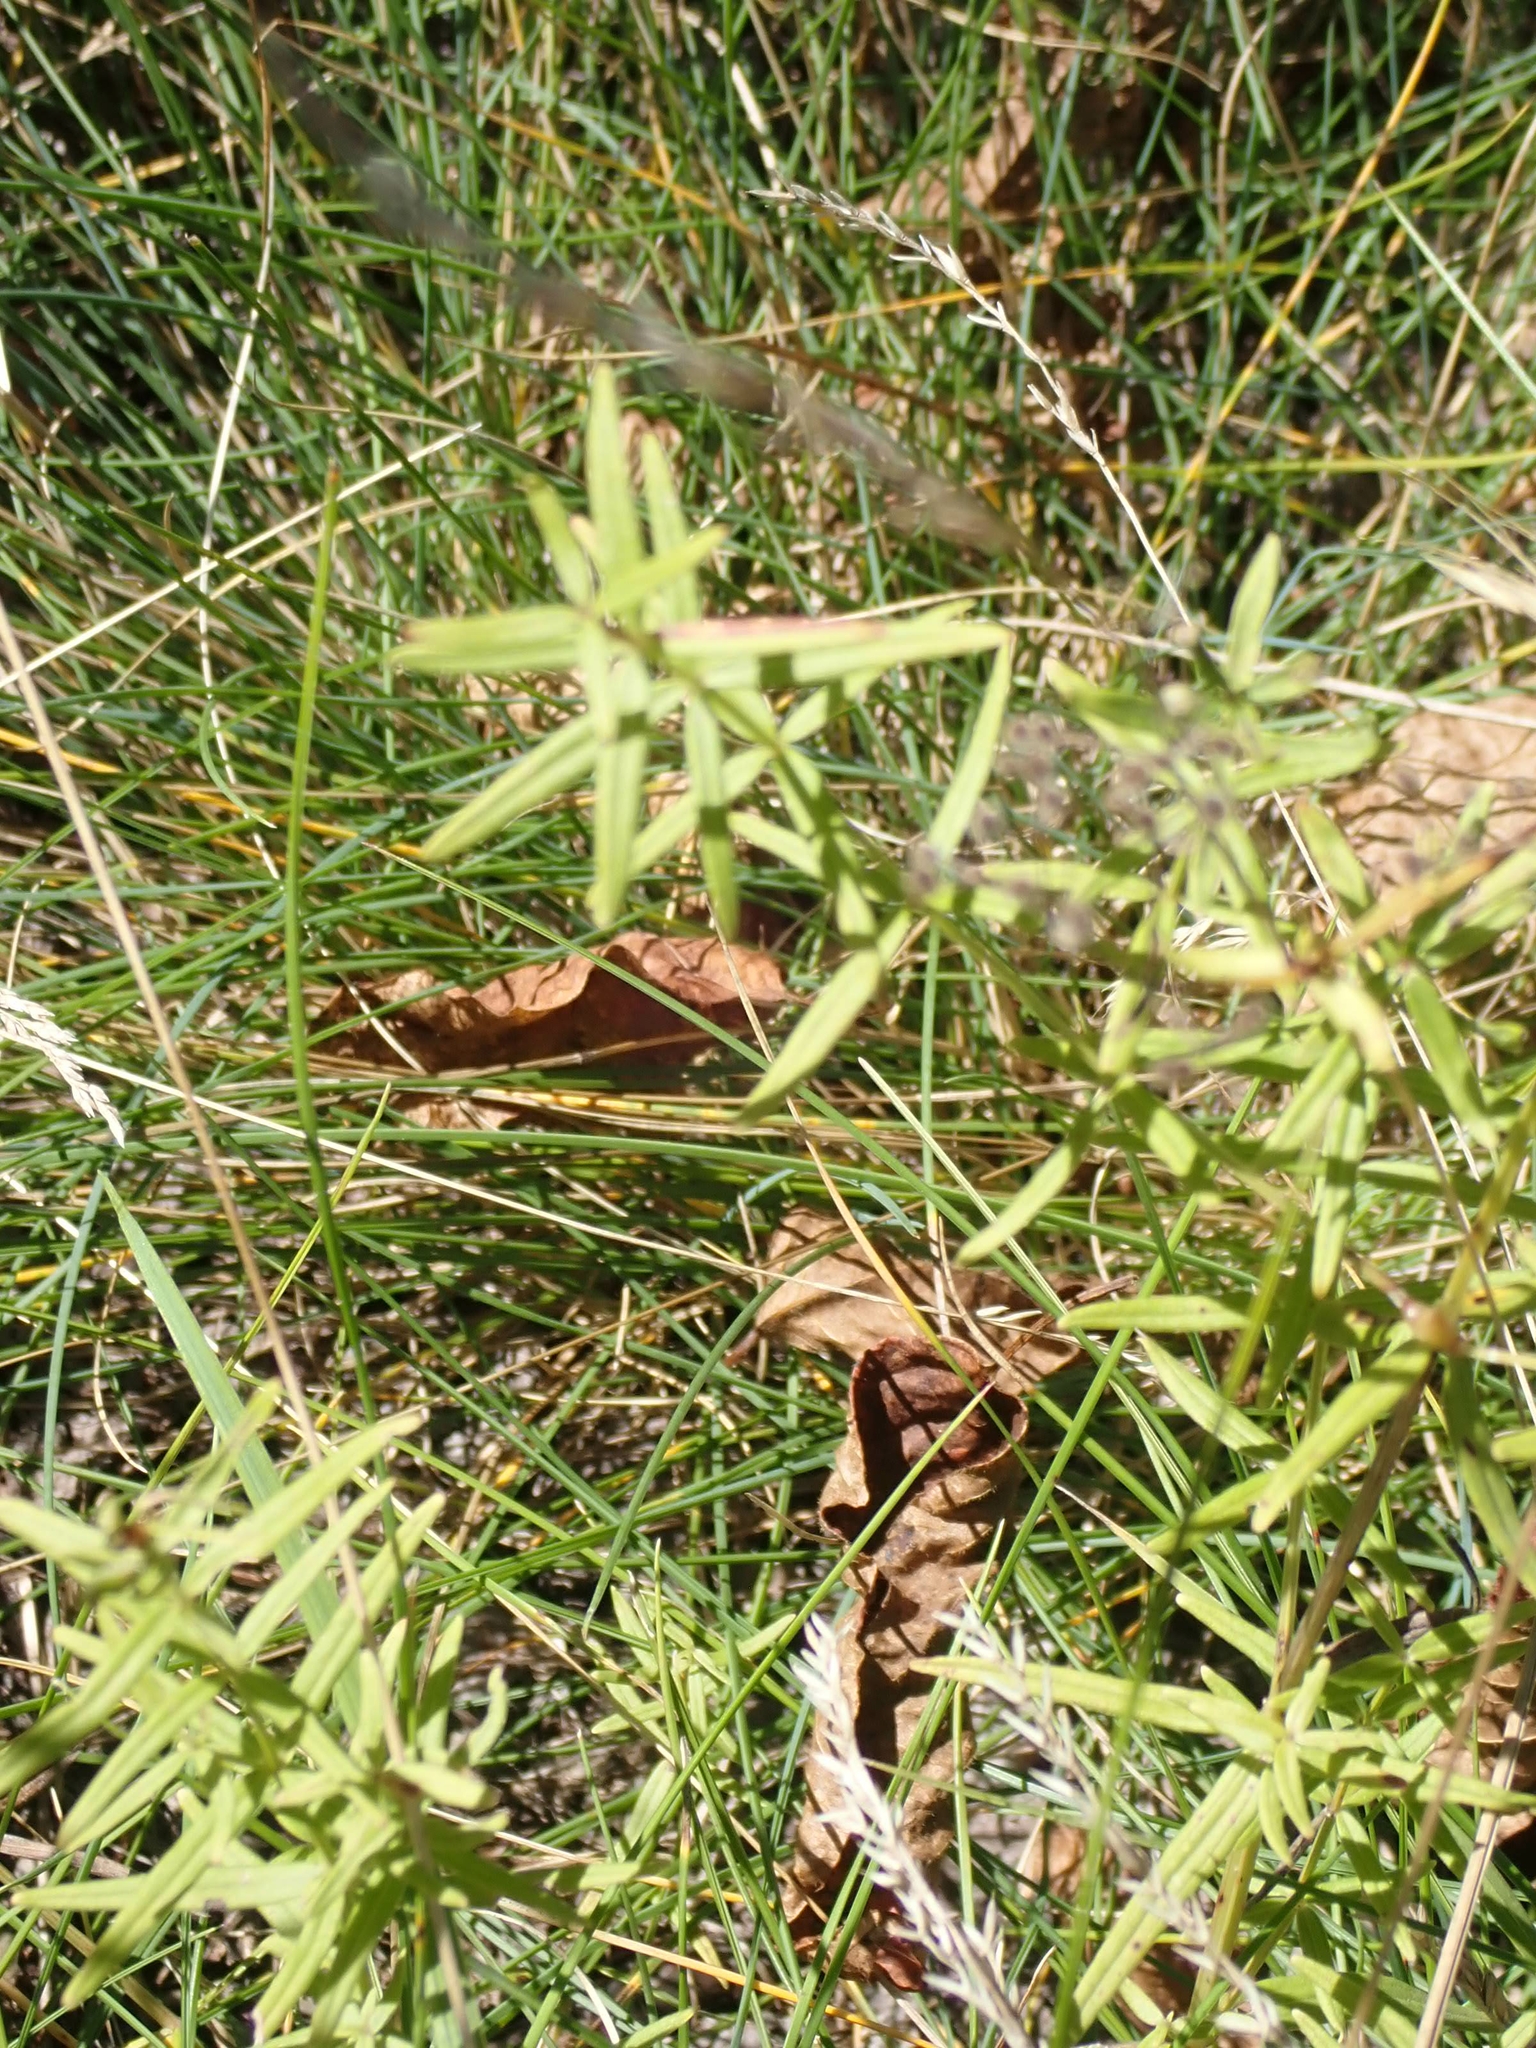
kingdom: Plantae
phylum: Tracheophyta
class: Magnoliopsida
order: Gentianales
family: Rubiaceae
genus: Galium
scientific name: Galium boreale
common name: Northern bedstraw
